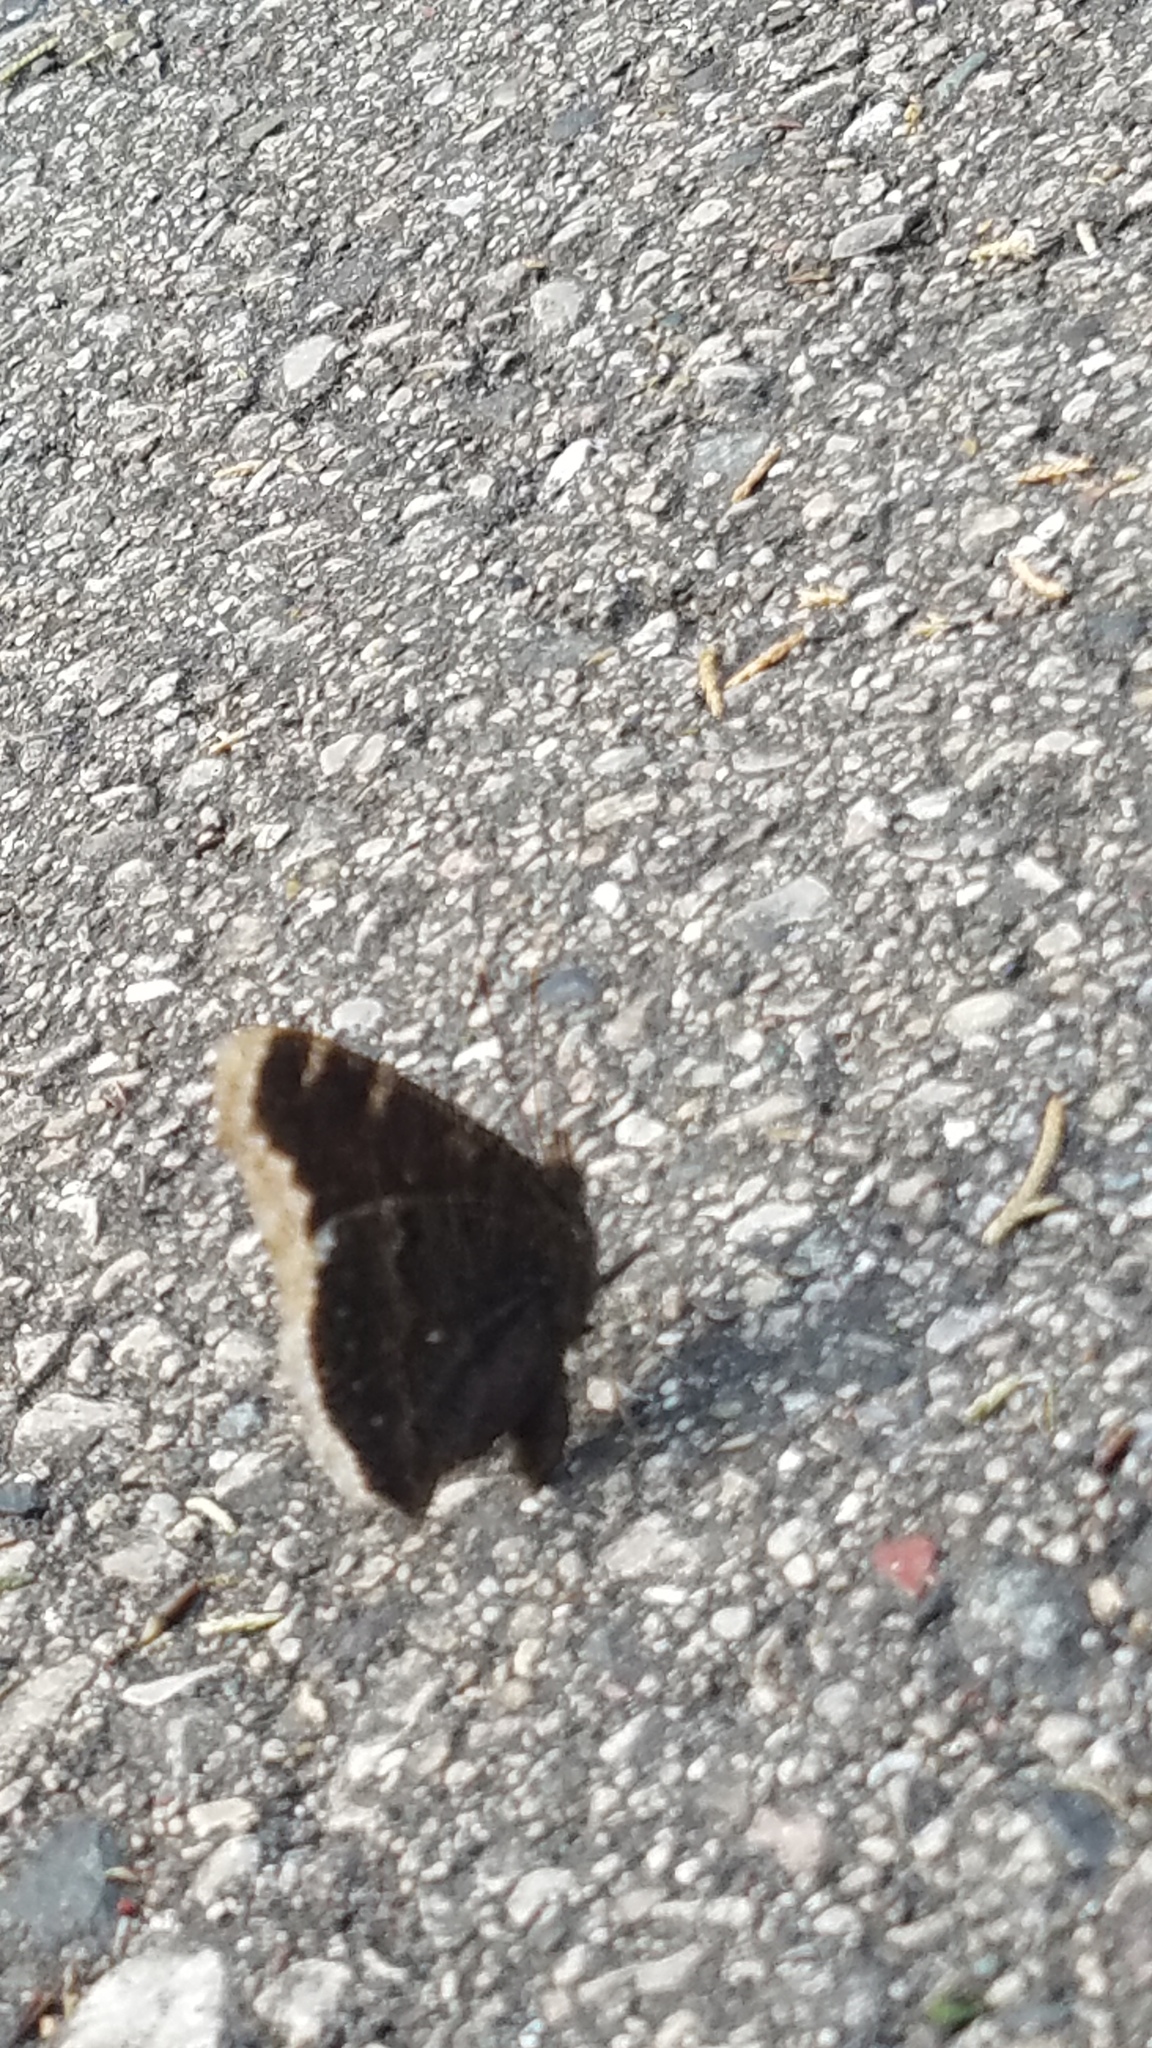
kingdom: Animalia
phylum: Arthropoda
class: Insecta
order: Lepidoptera
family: Nymphalidae
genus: Nymphalis
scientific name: Nymphalis antiopa
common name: Camberwell beauty
